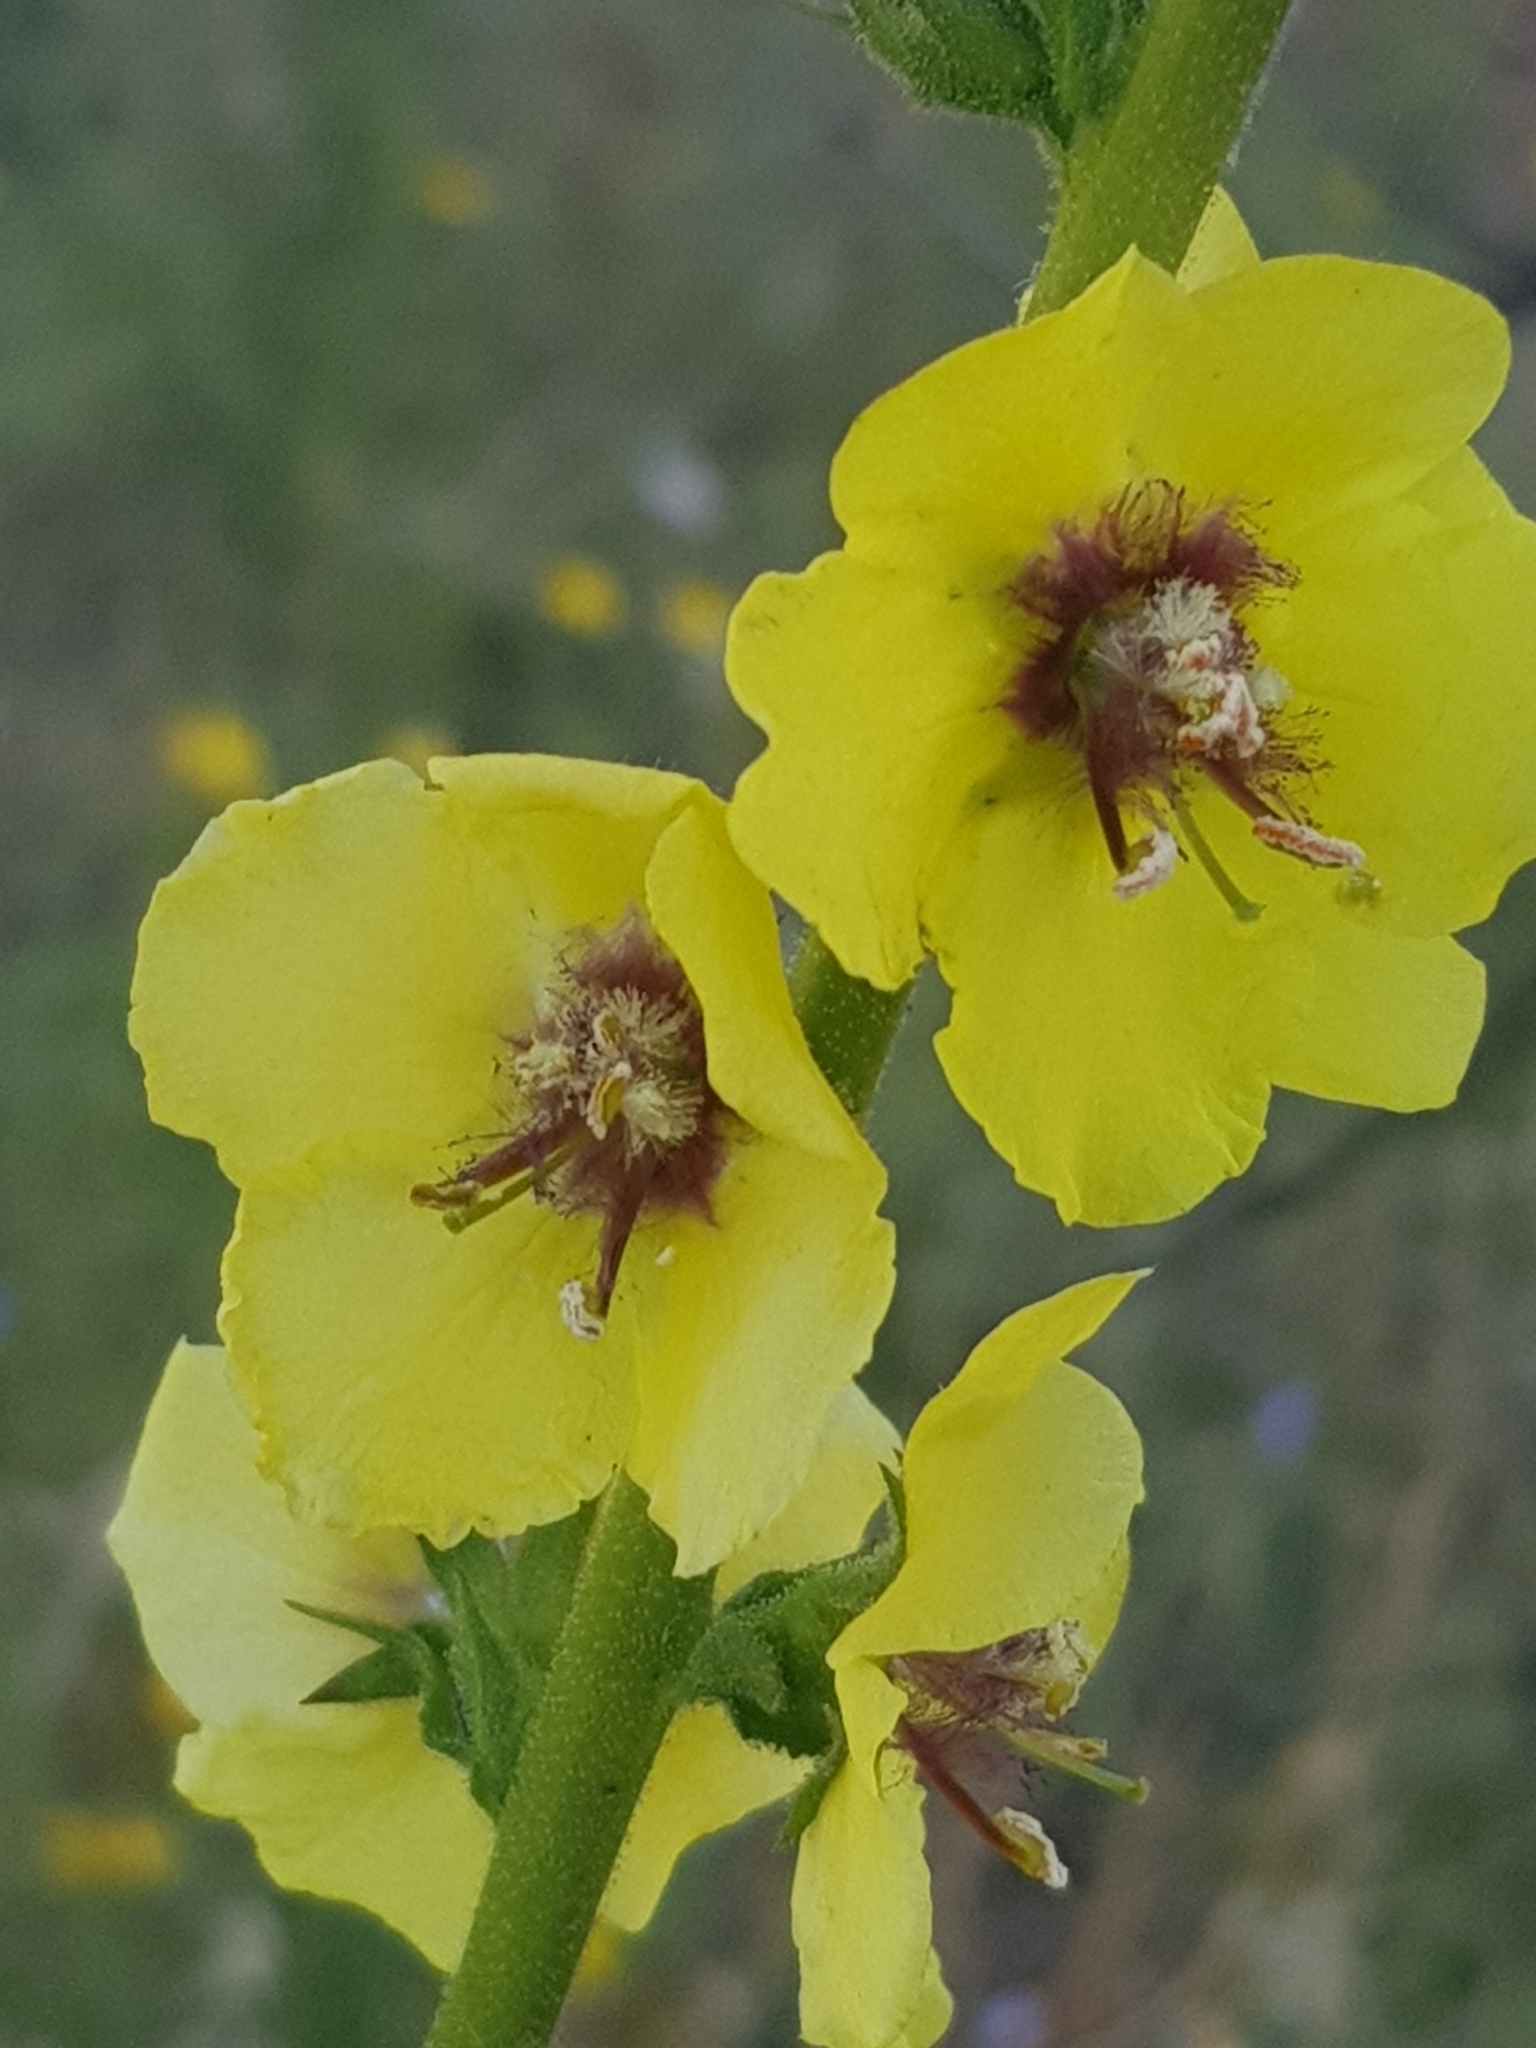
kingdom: Plantae
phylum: Tracheophyta
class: Magnoliopsida
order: Lamiales
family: Scrophulariaceae
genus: Verbascum
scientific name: Verbascum virgatum
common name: Twiggy mullein
